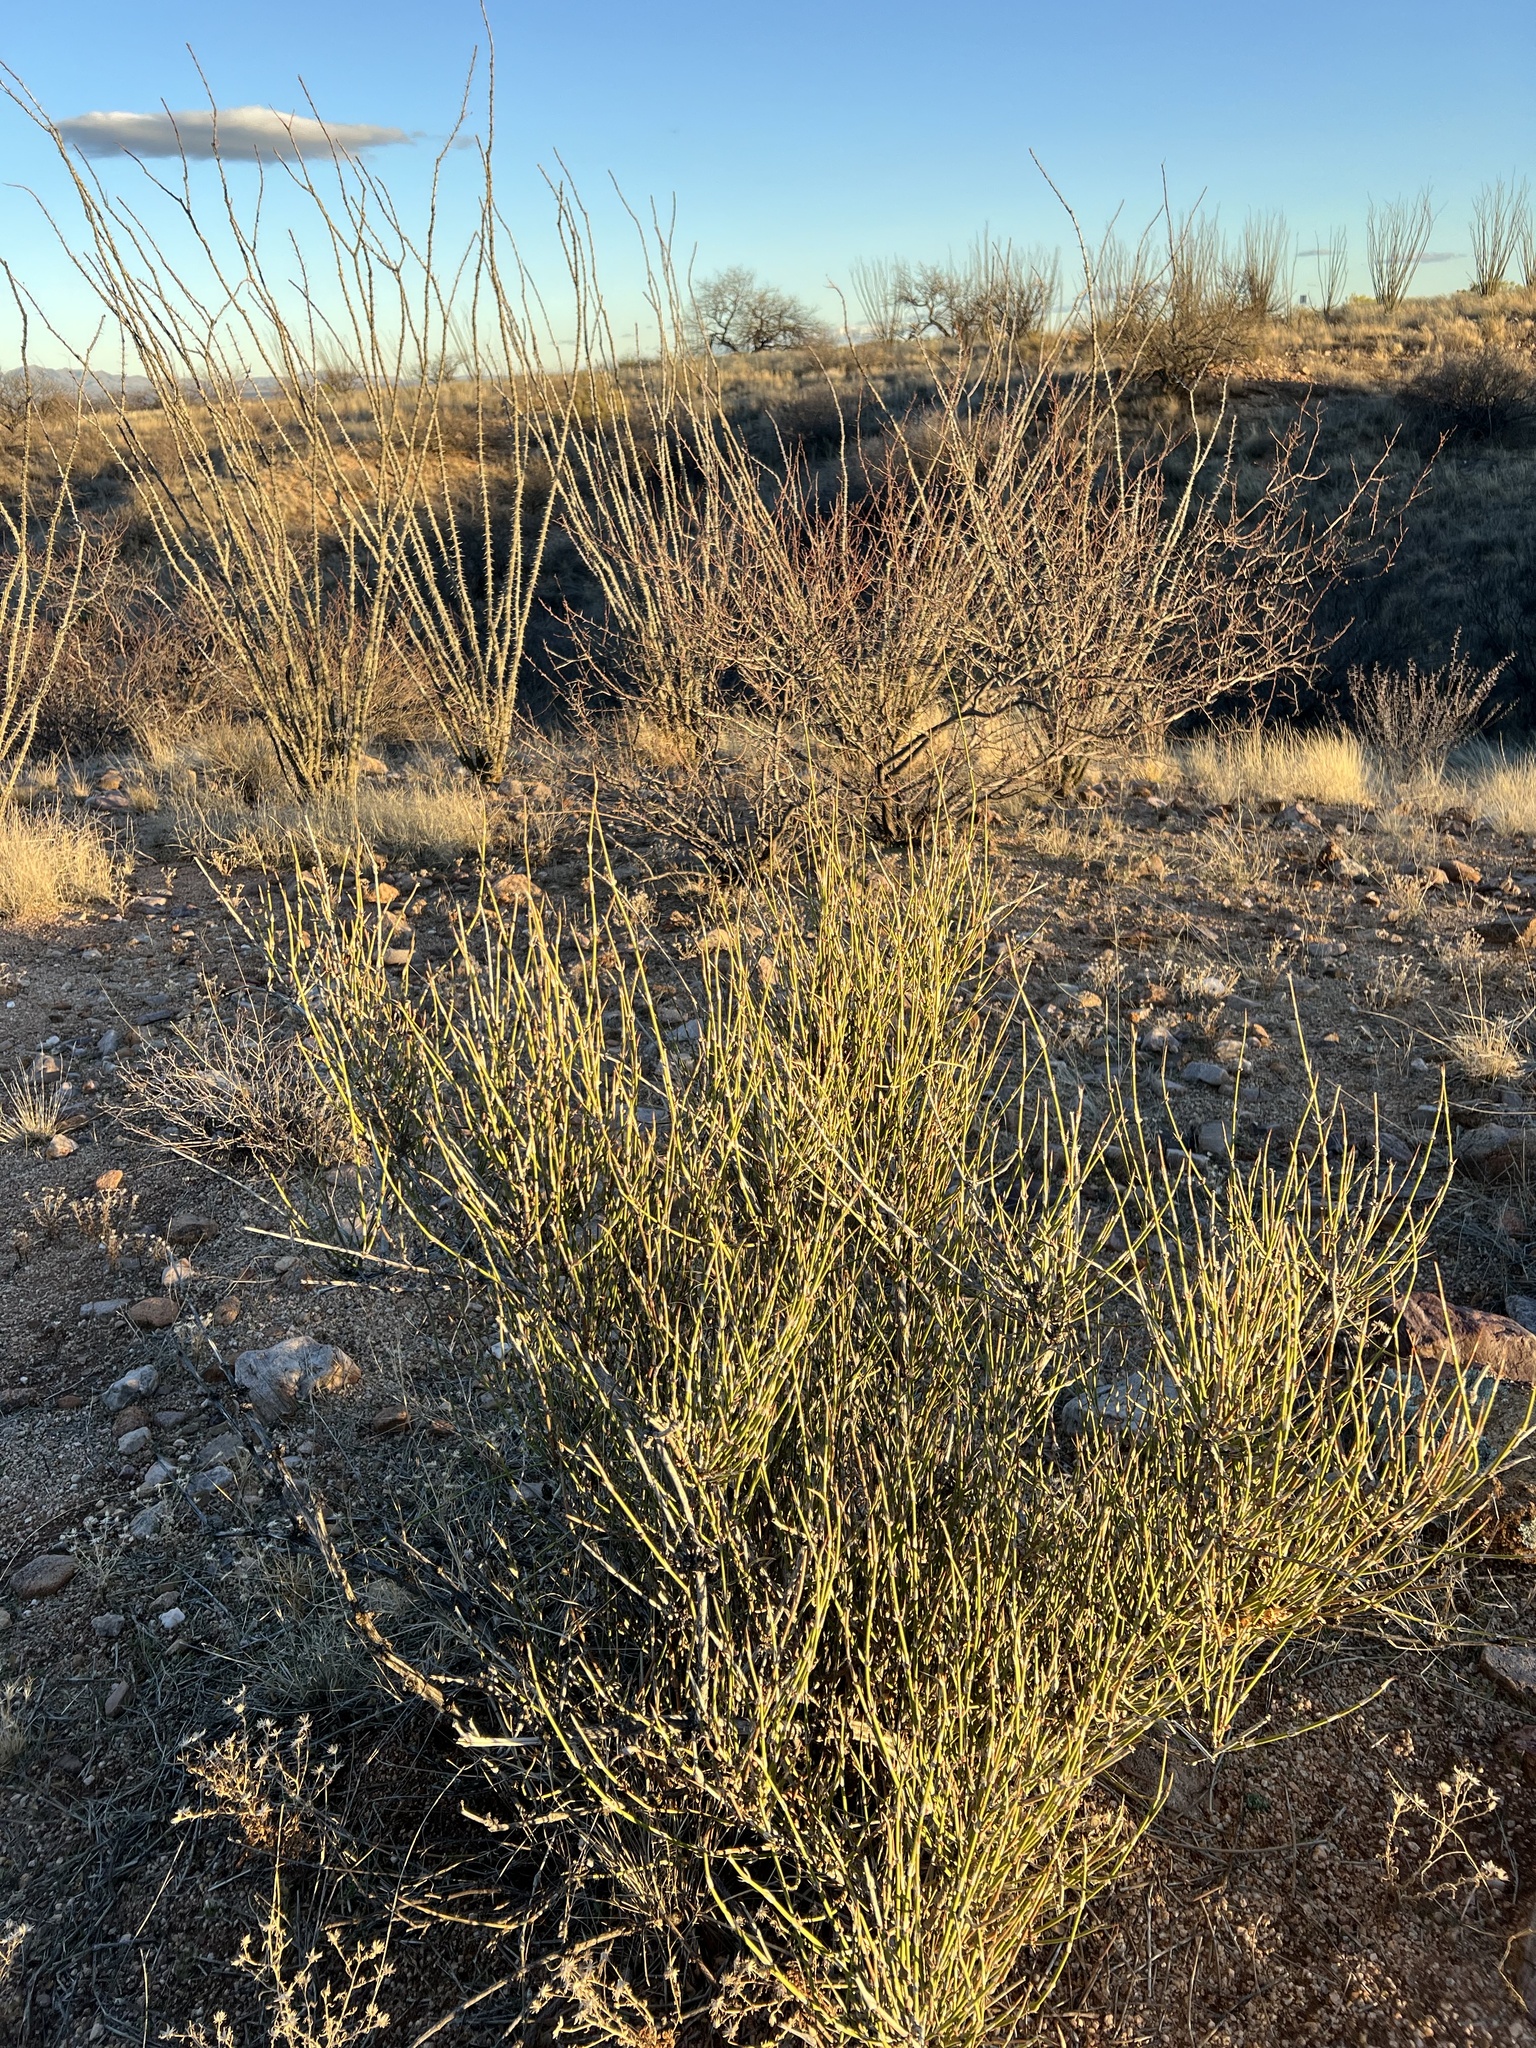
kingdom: Plantae
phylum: Tracheophyta
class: Gnetopsida
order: Ephedrales
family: Ephedraceae
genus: Ephedra
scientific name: Ephedra trifurca
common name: Mexican-tea
